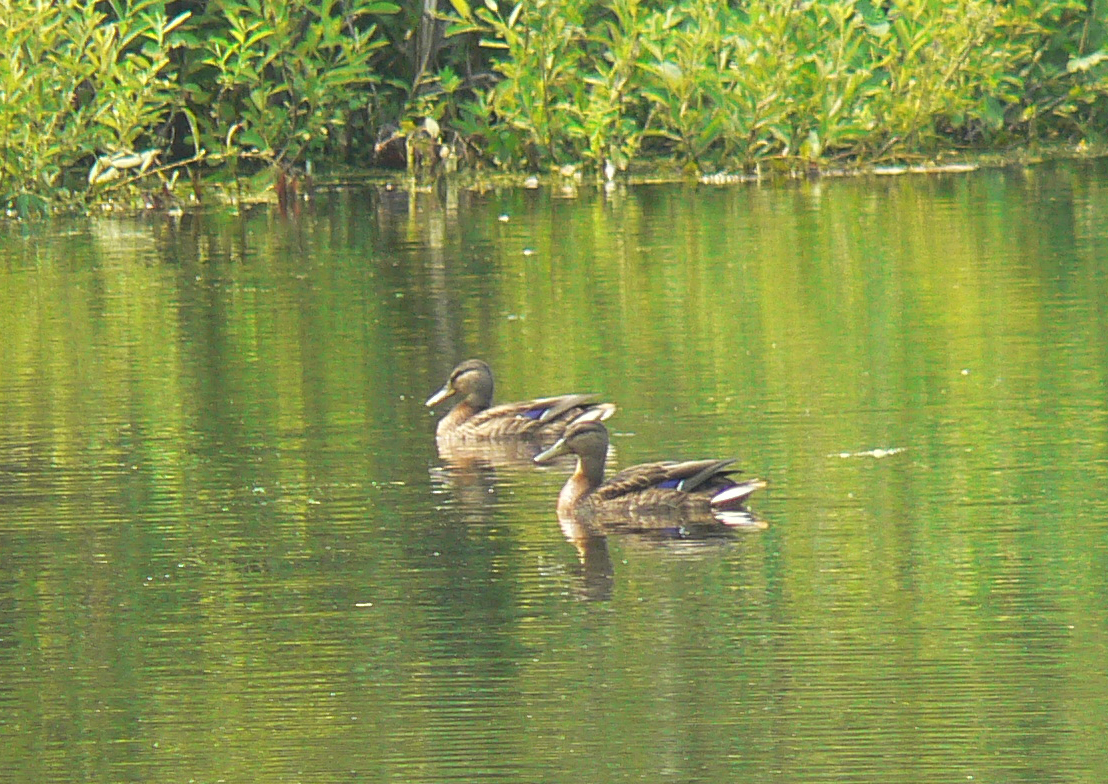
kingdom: Animalia
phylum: Chordata
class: Aves
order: Anseriformes
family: Anatidae
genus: Anas
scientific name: Anas platyrhynchos
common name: Mallard
